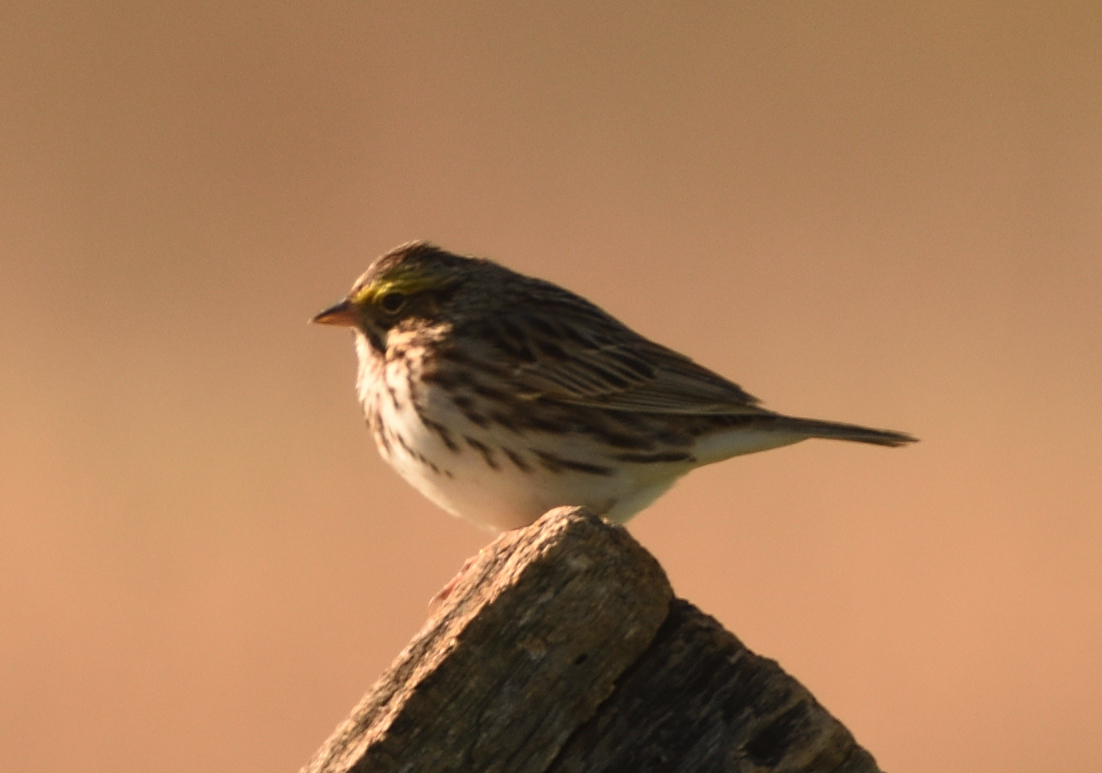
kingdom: Animalia
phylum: Chordata
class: Aves
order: Passeriformes
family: Passerellidae
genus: Passerculus
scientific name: Passerculus sandwichensis
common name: Savannah sparrow
